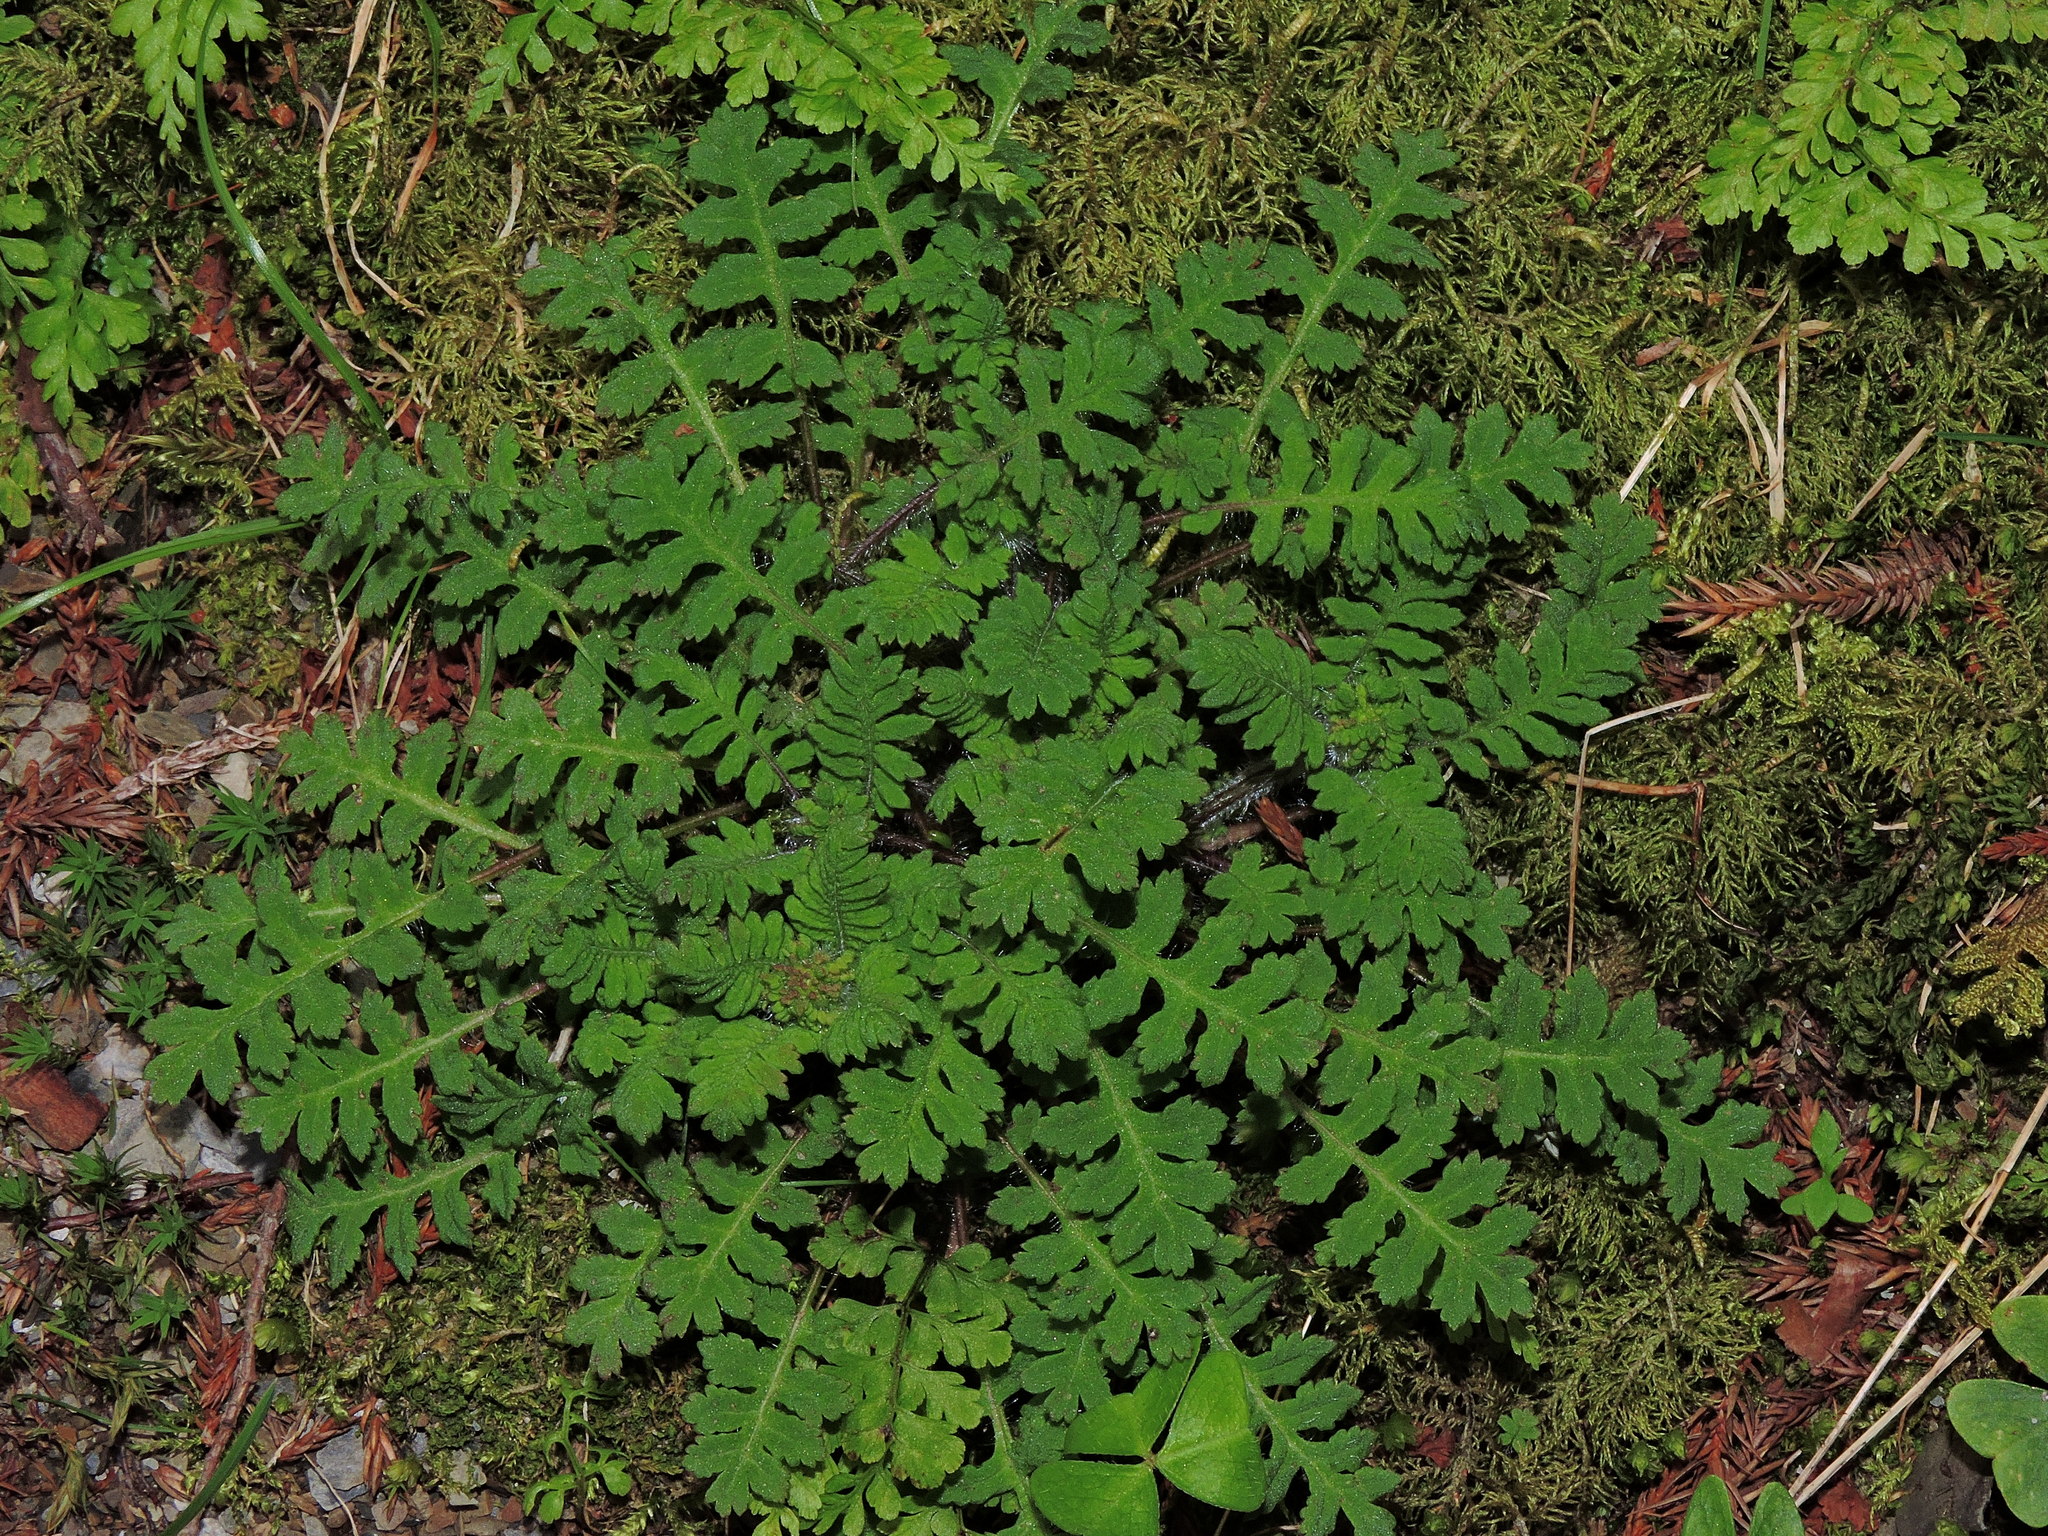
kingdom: Plantae
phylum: Tracheophyta
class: Magnoliopsida
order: Lamiales
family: Orobanchaceae
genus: Pedicularis
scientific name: Pedicularis refracta
